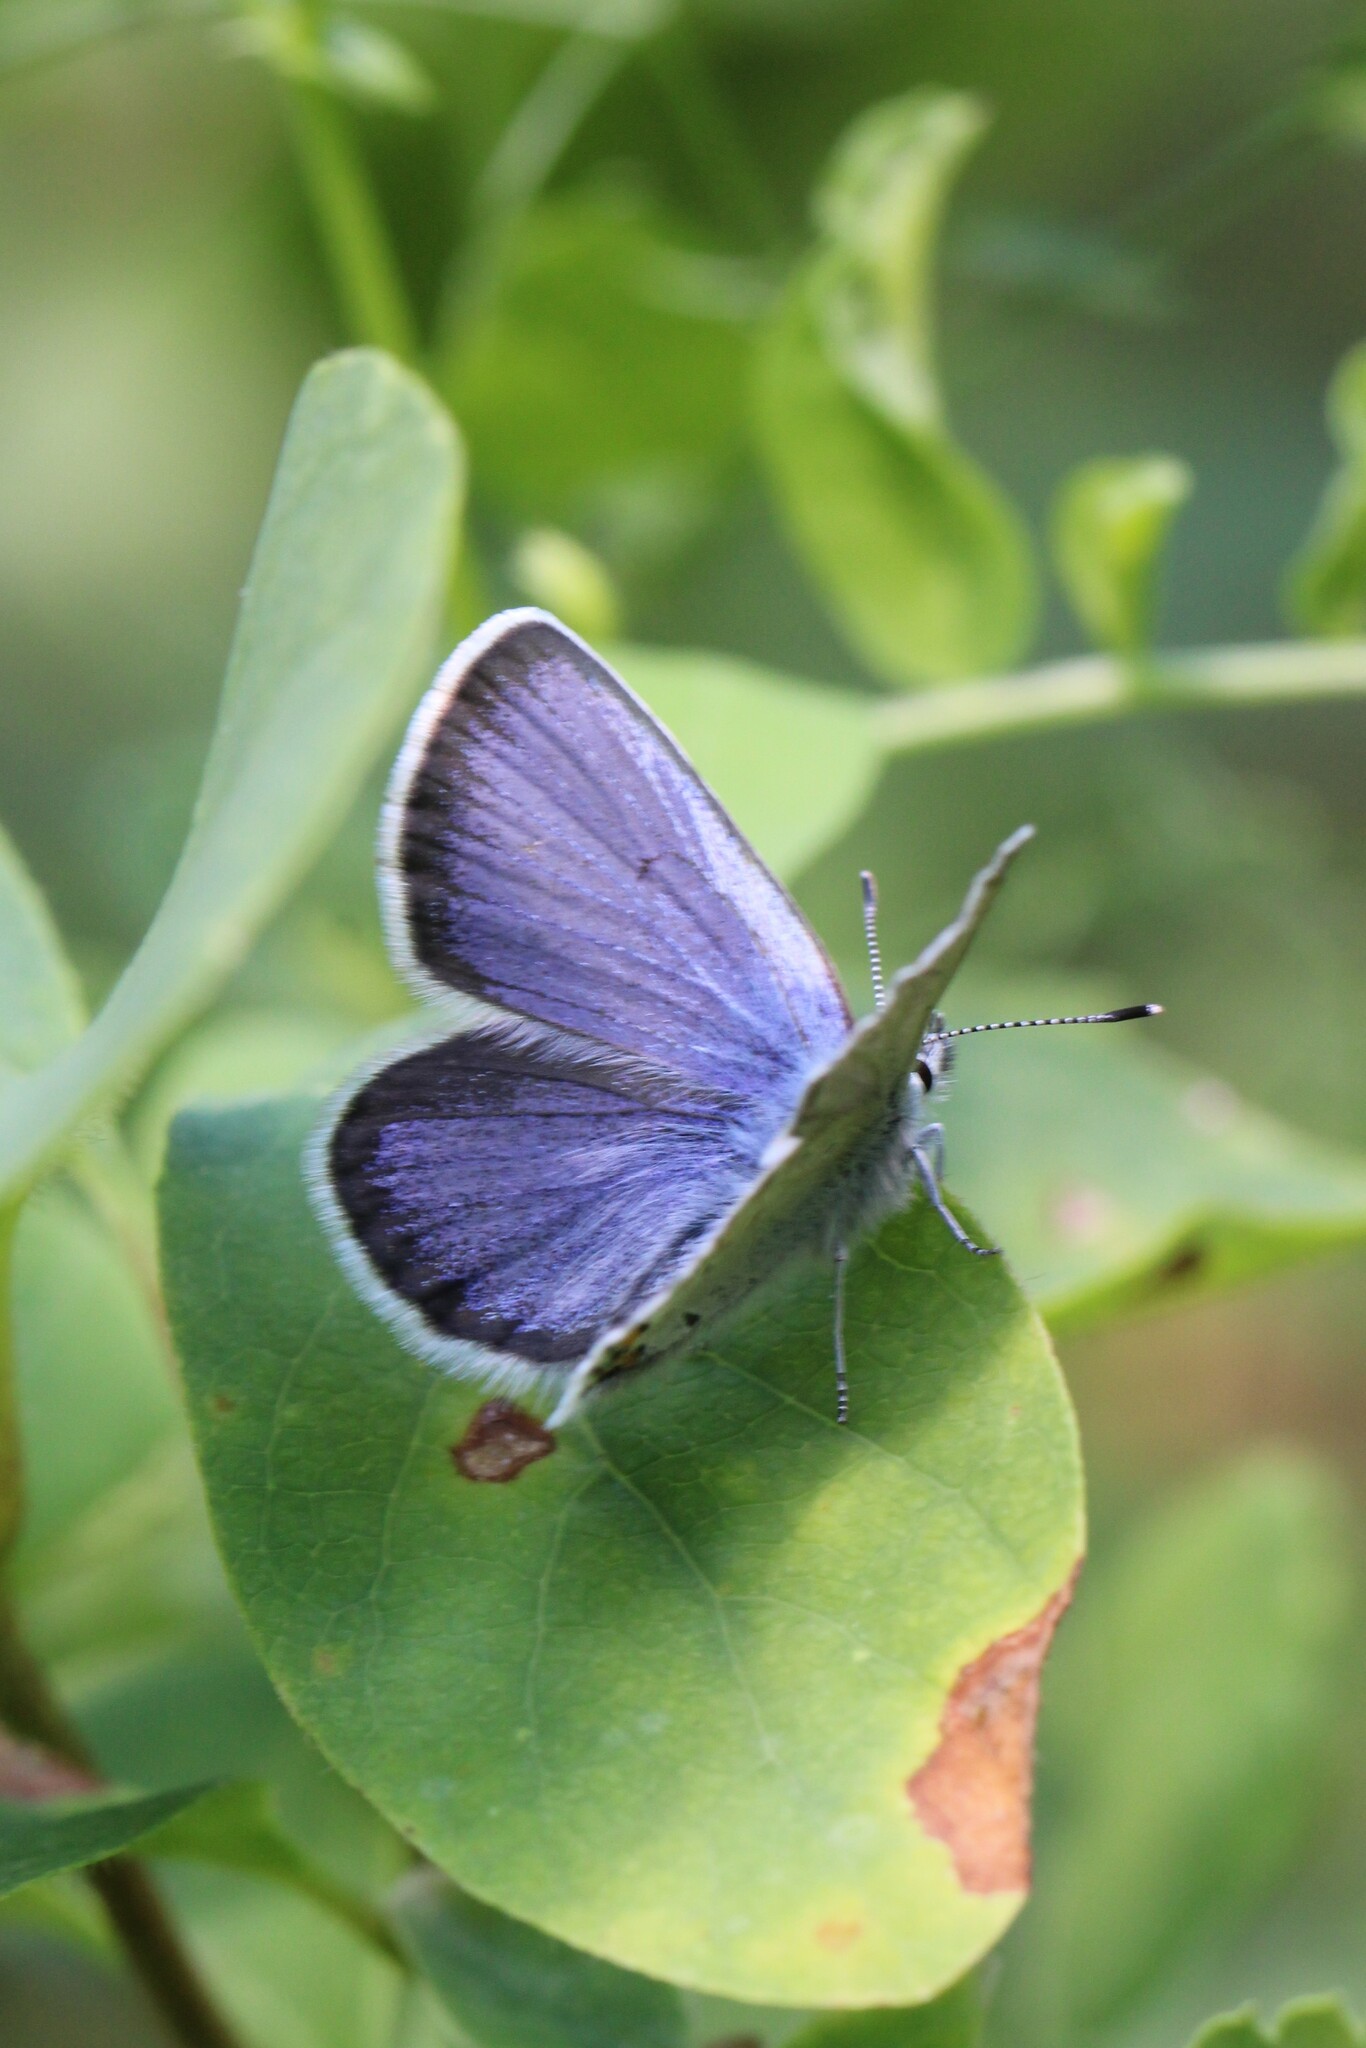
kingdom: Animalia
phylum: Arthropoda
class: Insecta
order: Lepidoptera
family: Lycaenidae
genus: Lycaeides
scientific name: Lycaeides idas
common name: Northern blue
